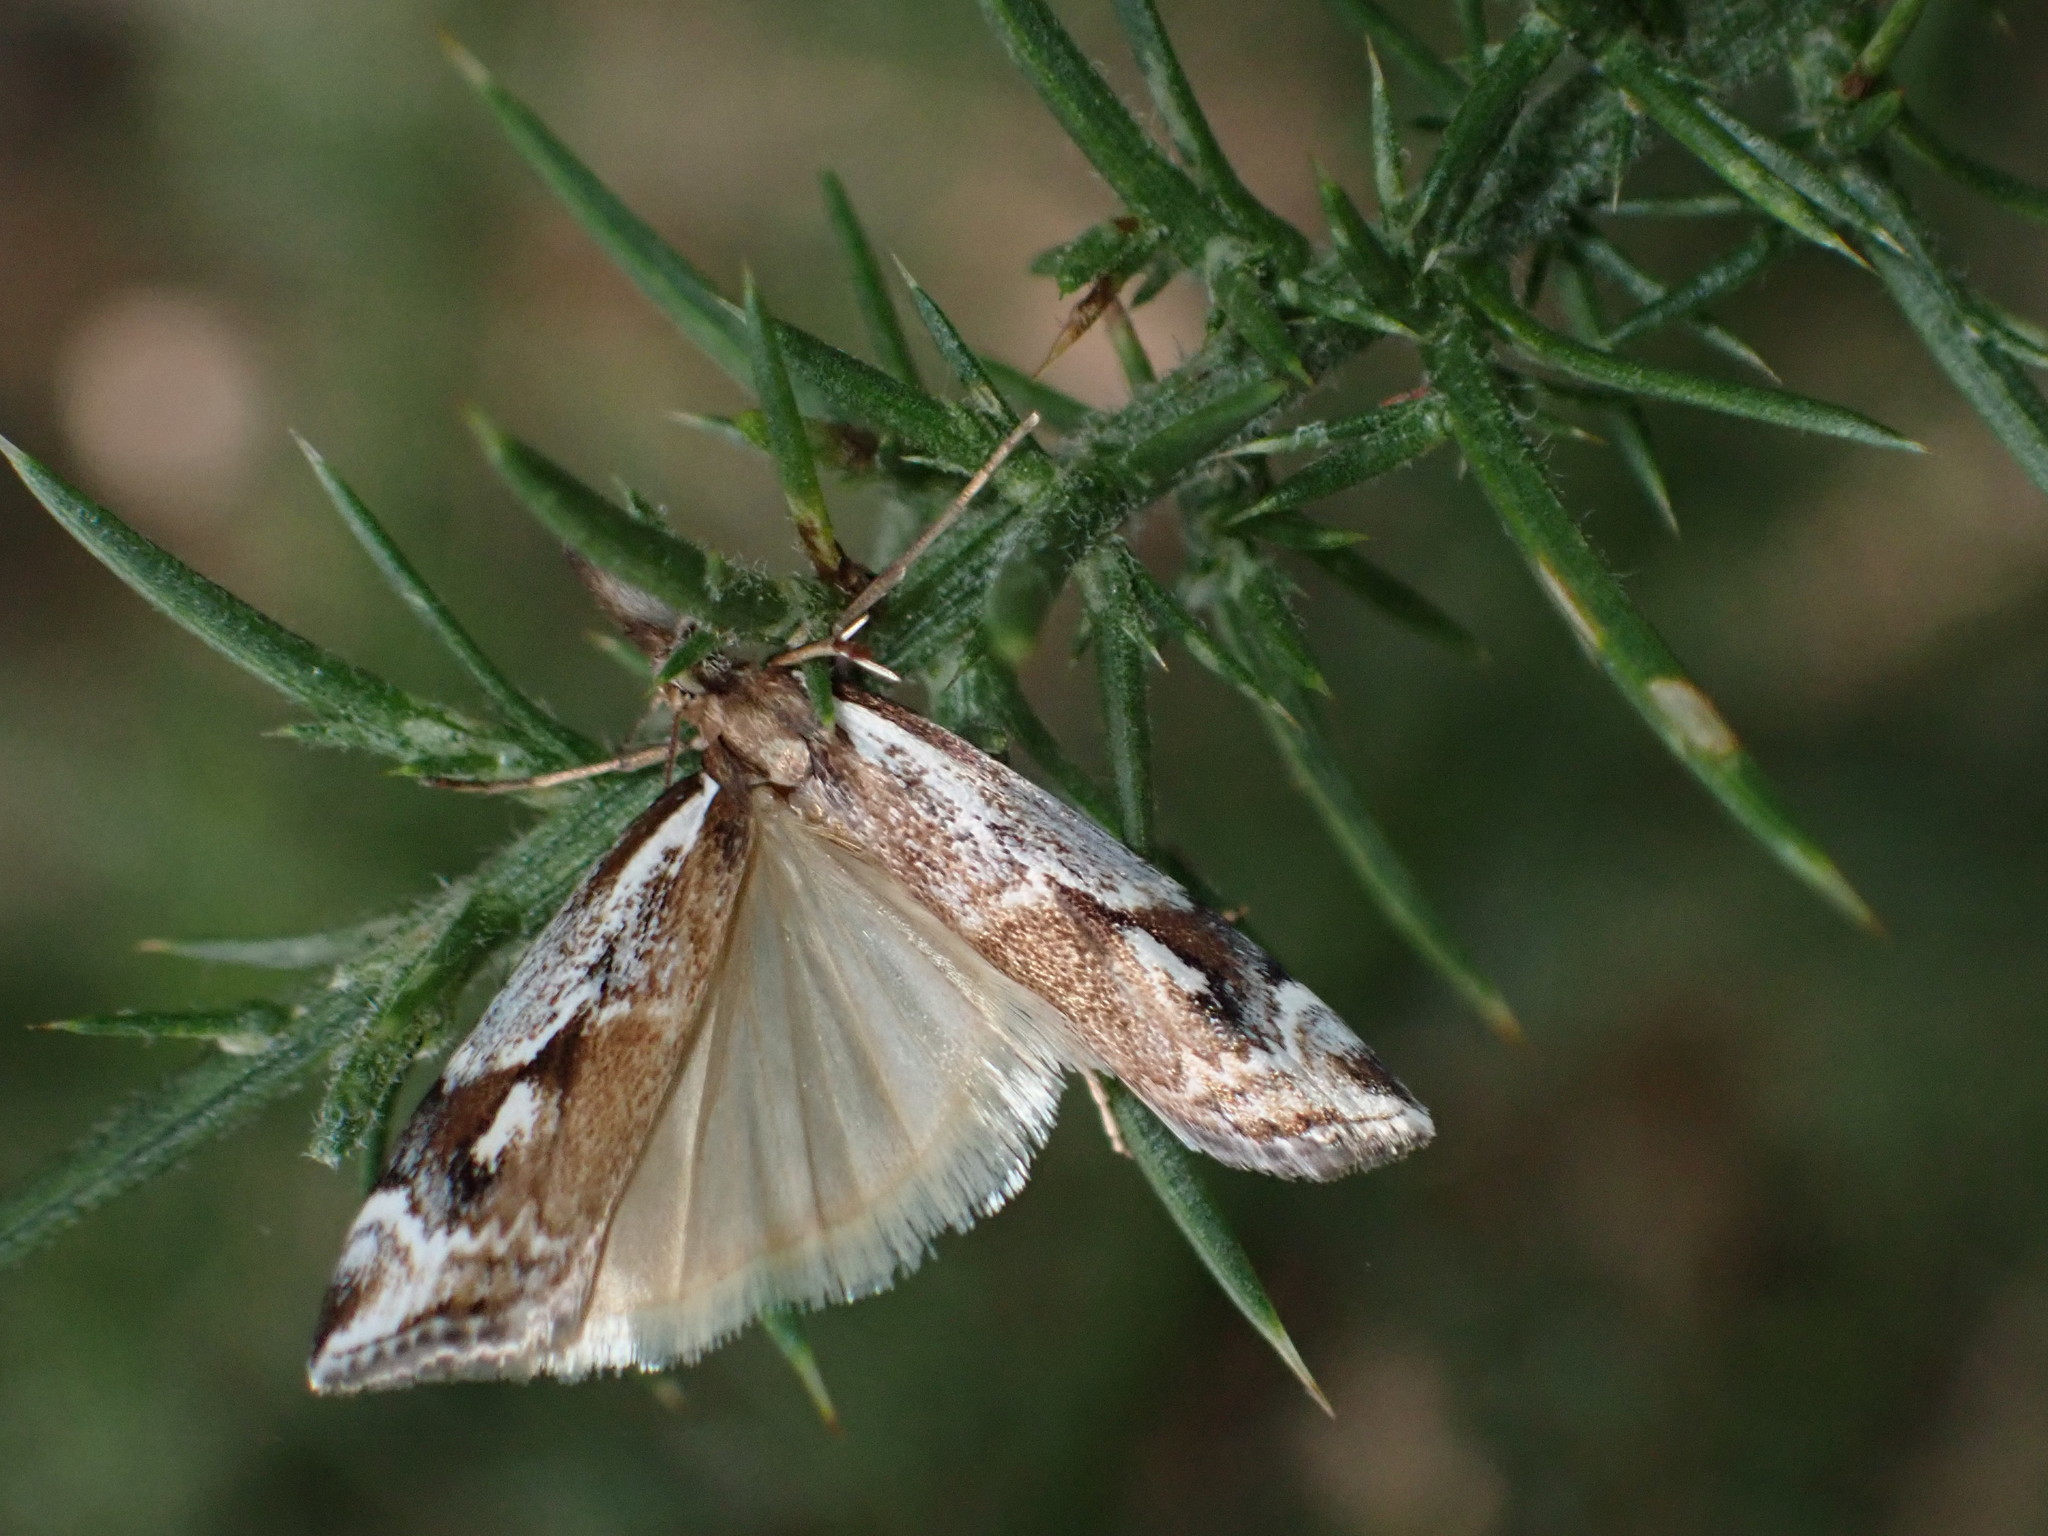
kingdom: Animalia
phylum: Arthropoda
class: Insecta
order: Lepidoptera
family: Crambidae
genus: Orocrambus
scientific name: Orocrambus vulgaris
